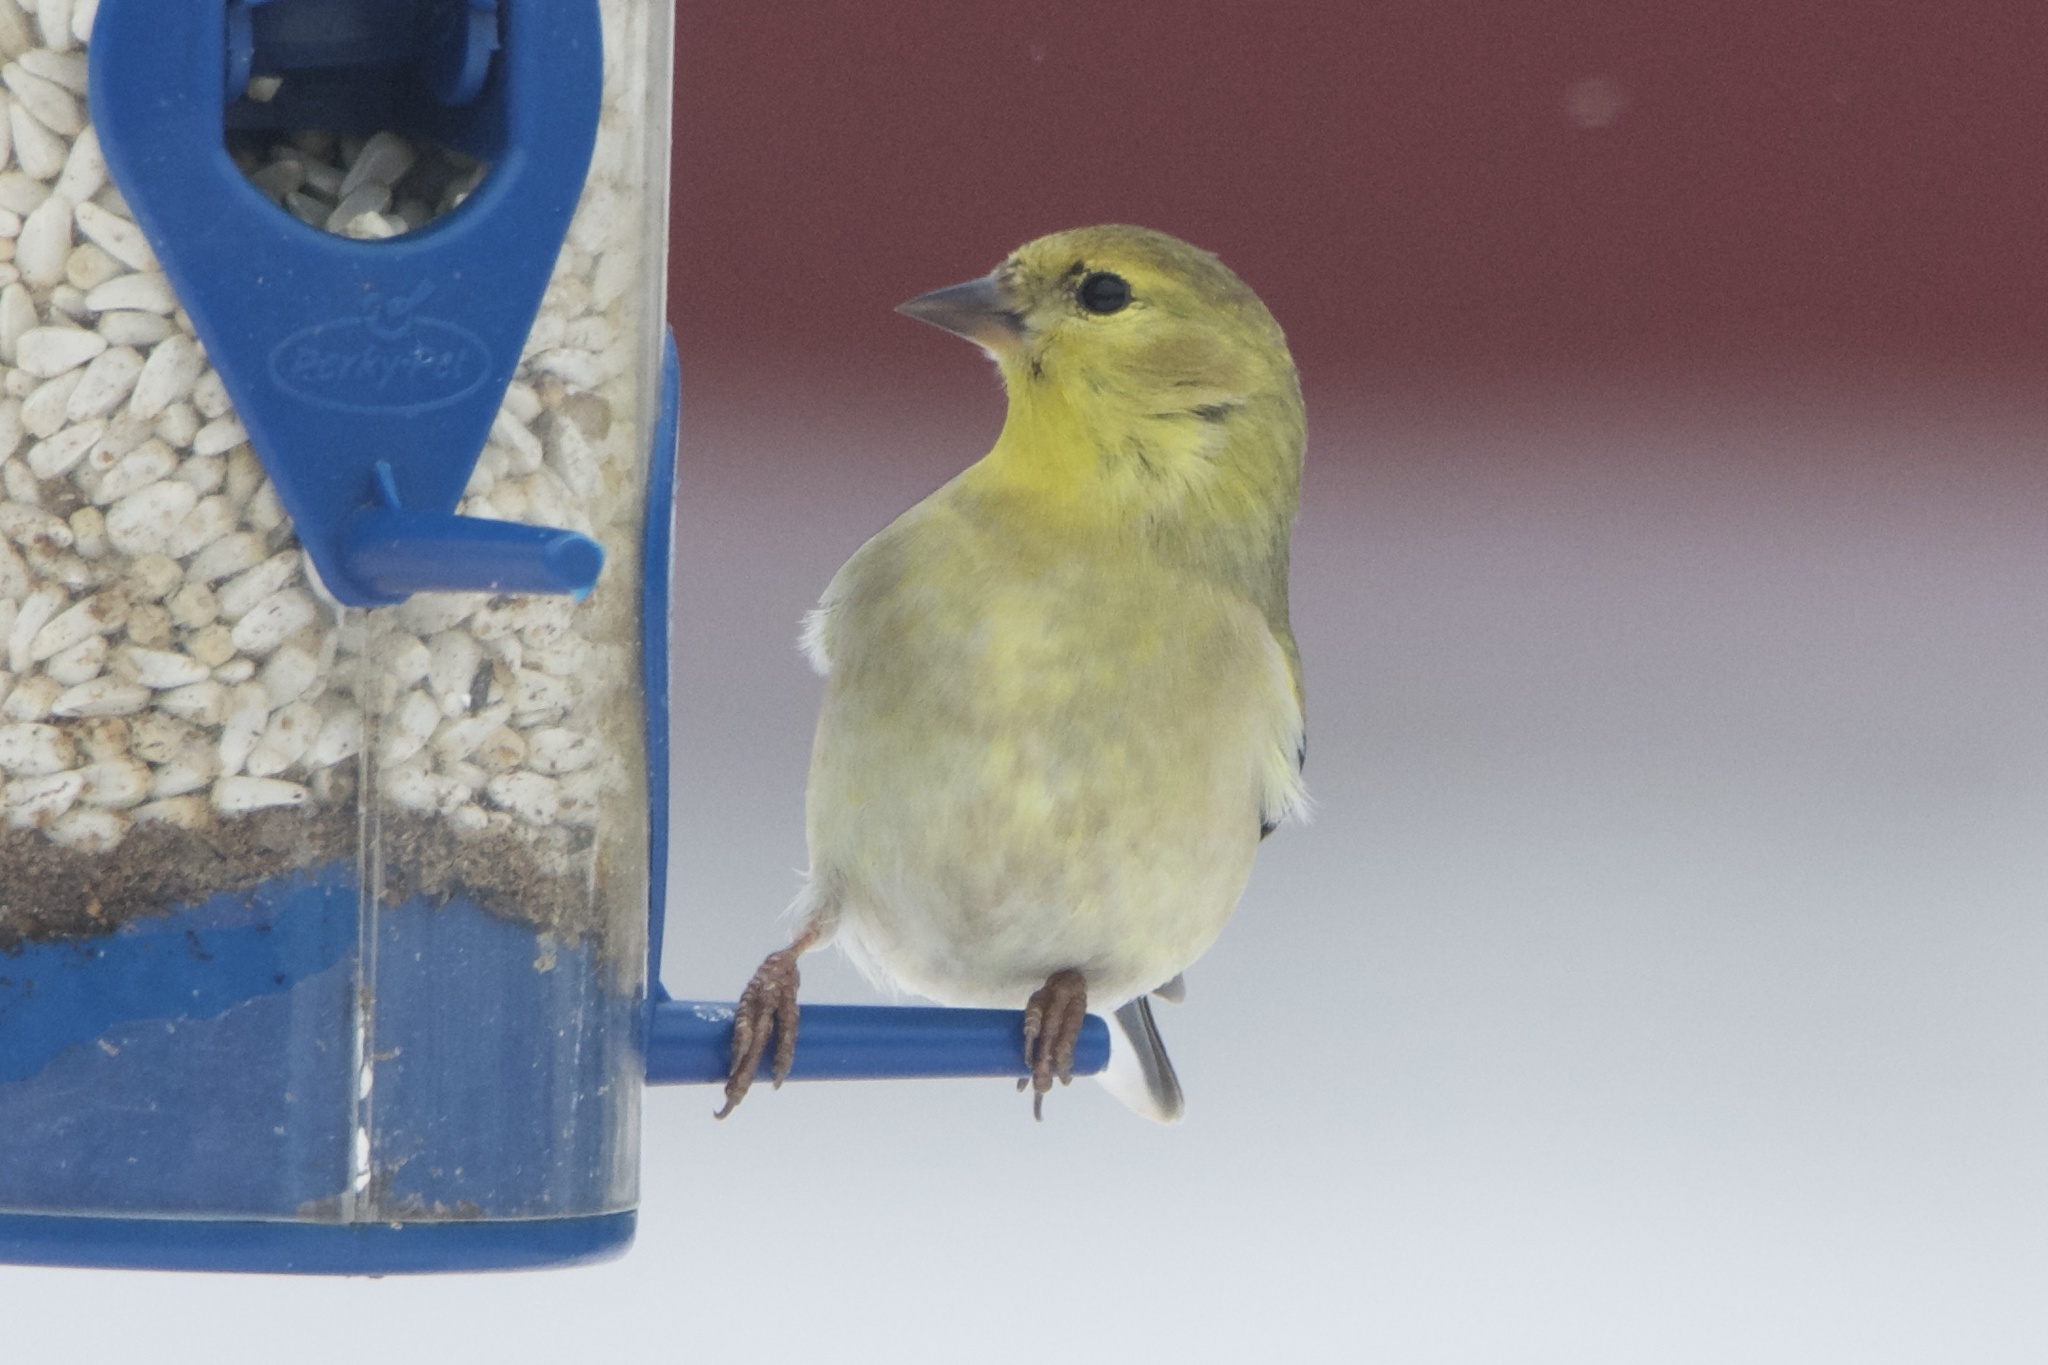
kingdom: Animalia
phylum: Chordata
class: Aves
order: Passeriformes
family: Fringillidae
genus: Spinus
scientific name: Spinus tristis
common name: American goldfinch
